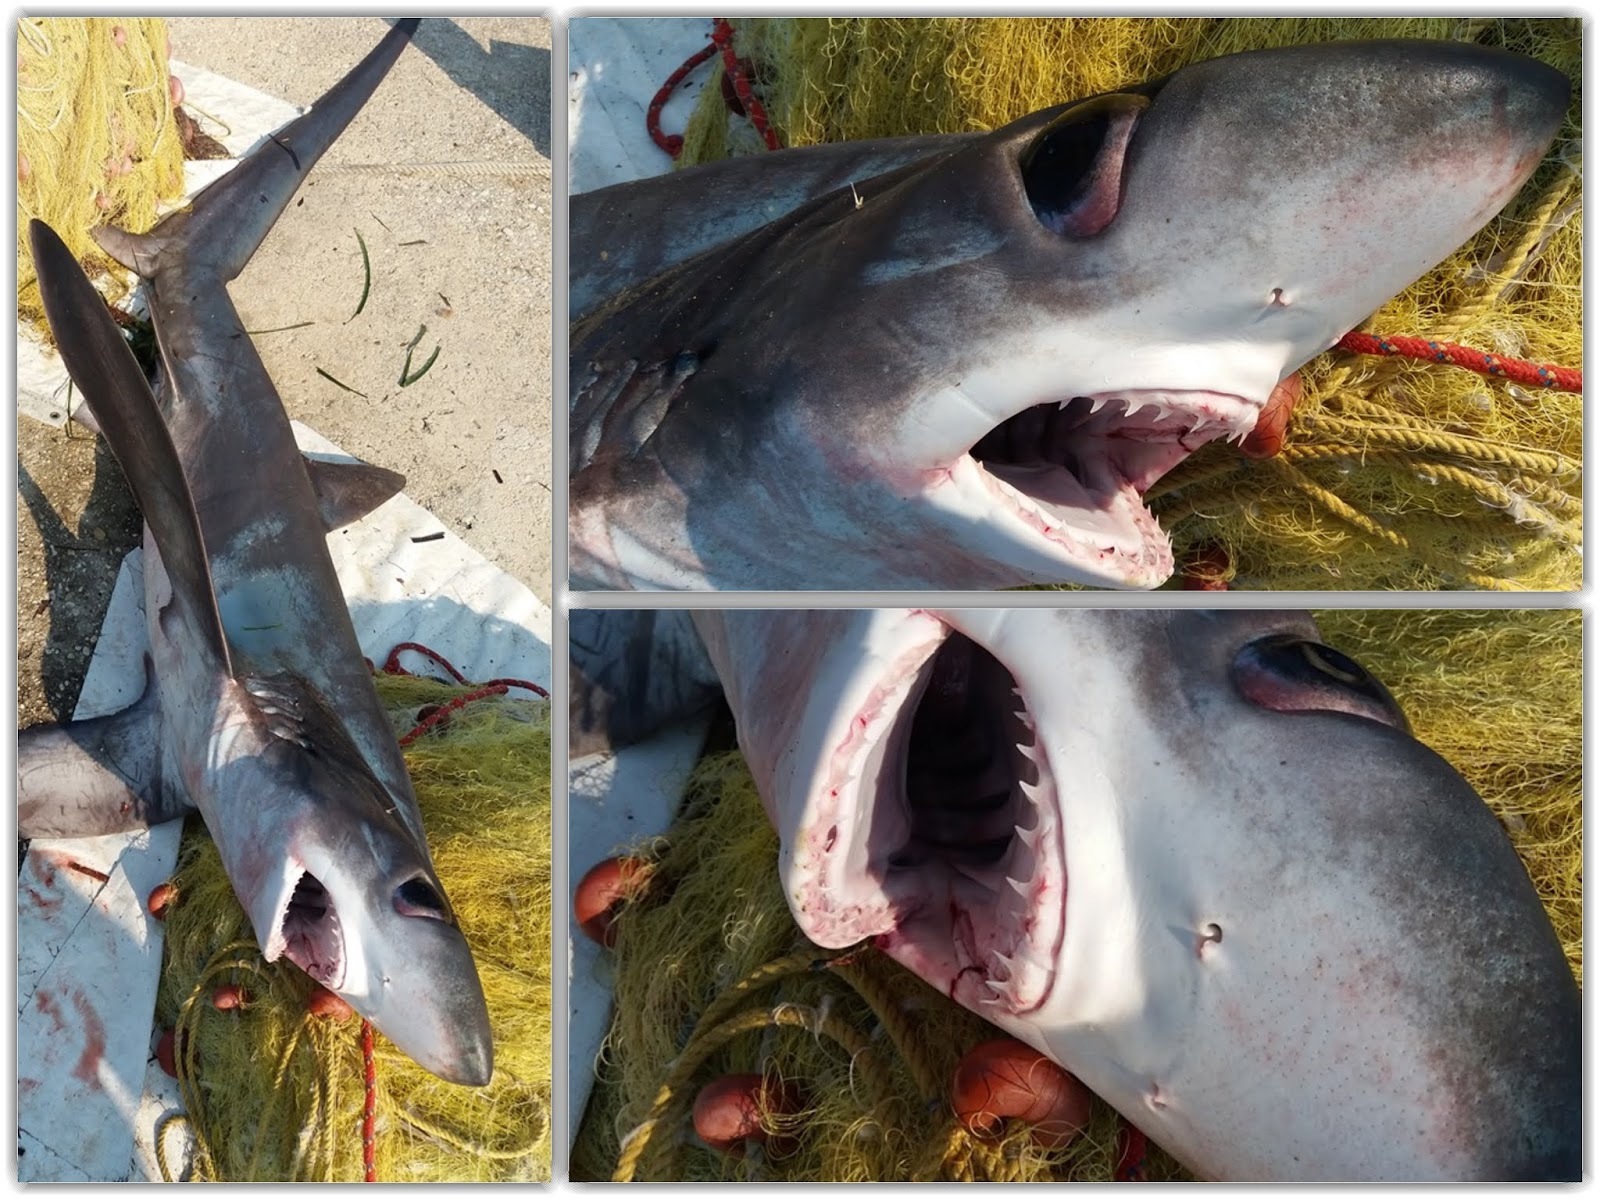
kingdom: Animalia
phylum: Chordata
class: Elasmobranchii
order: Lamniformes
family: Alopiidae
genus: Alopias
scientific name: Alopias superciliosus
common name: Bigeye thresher
